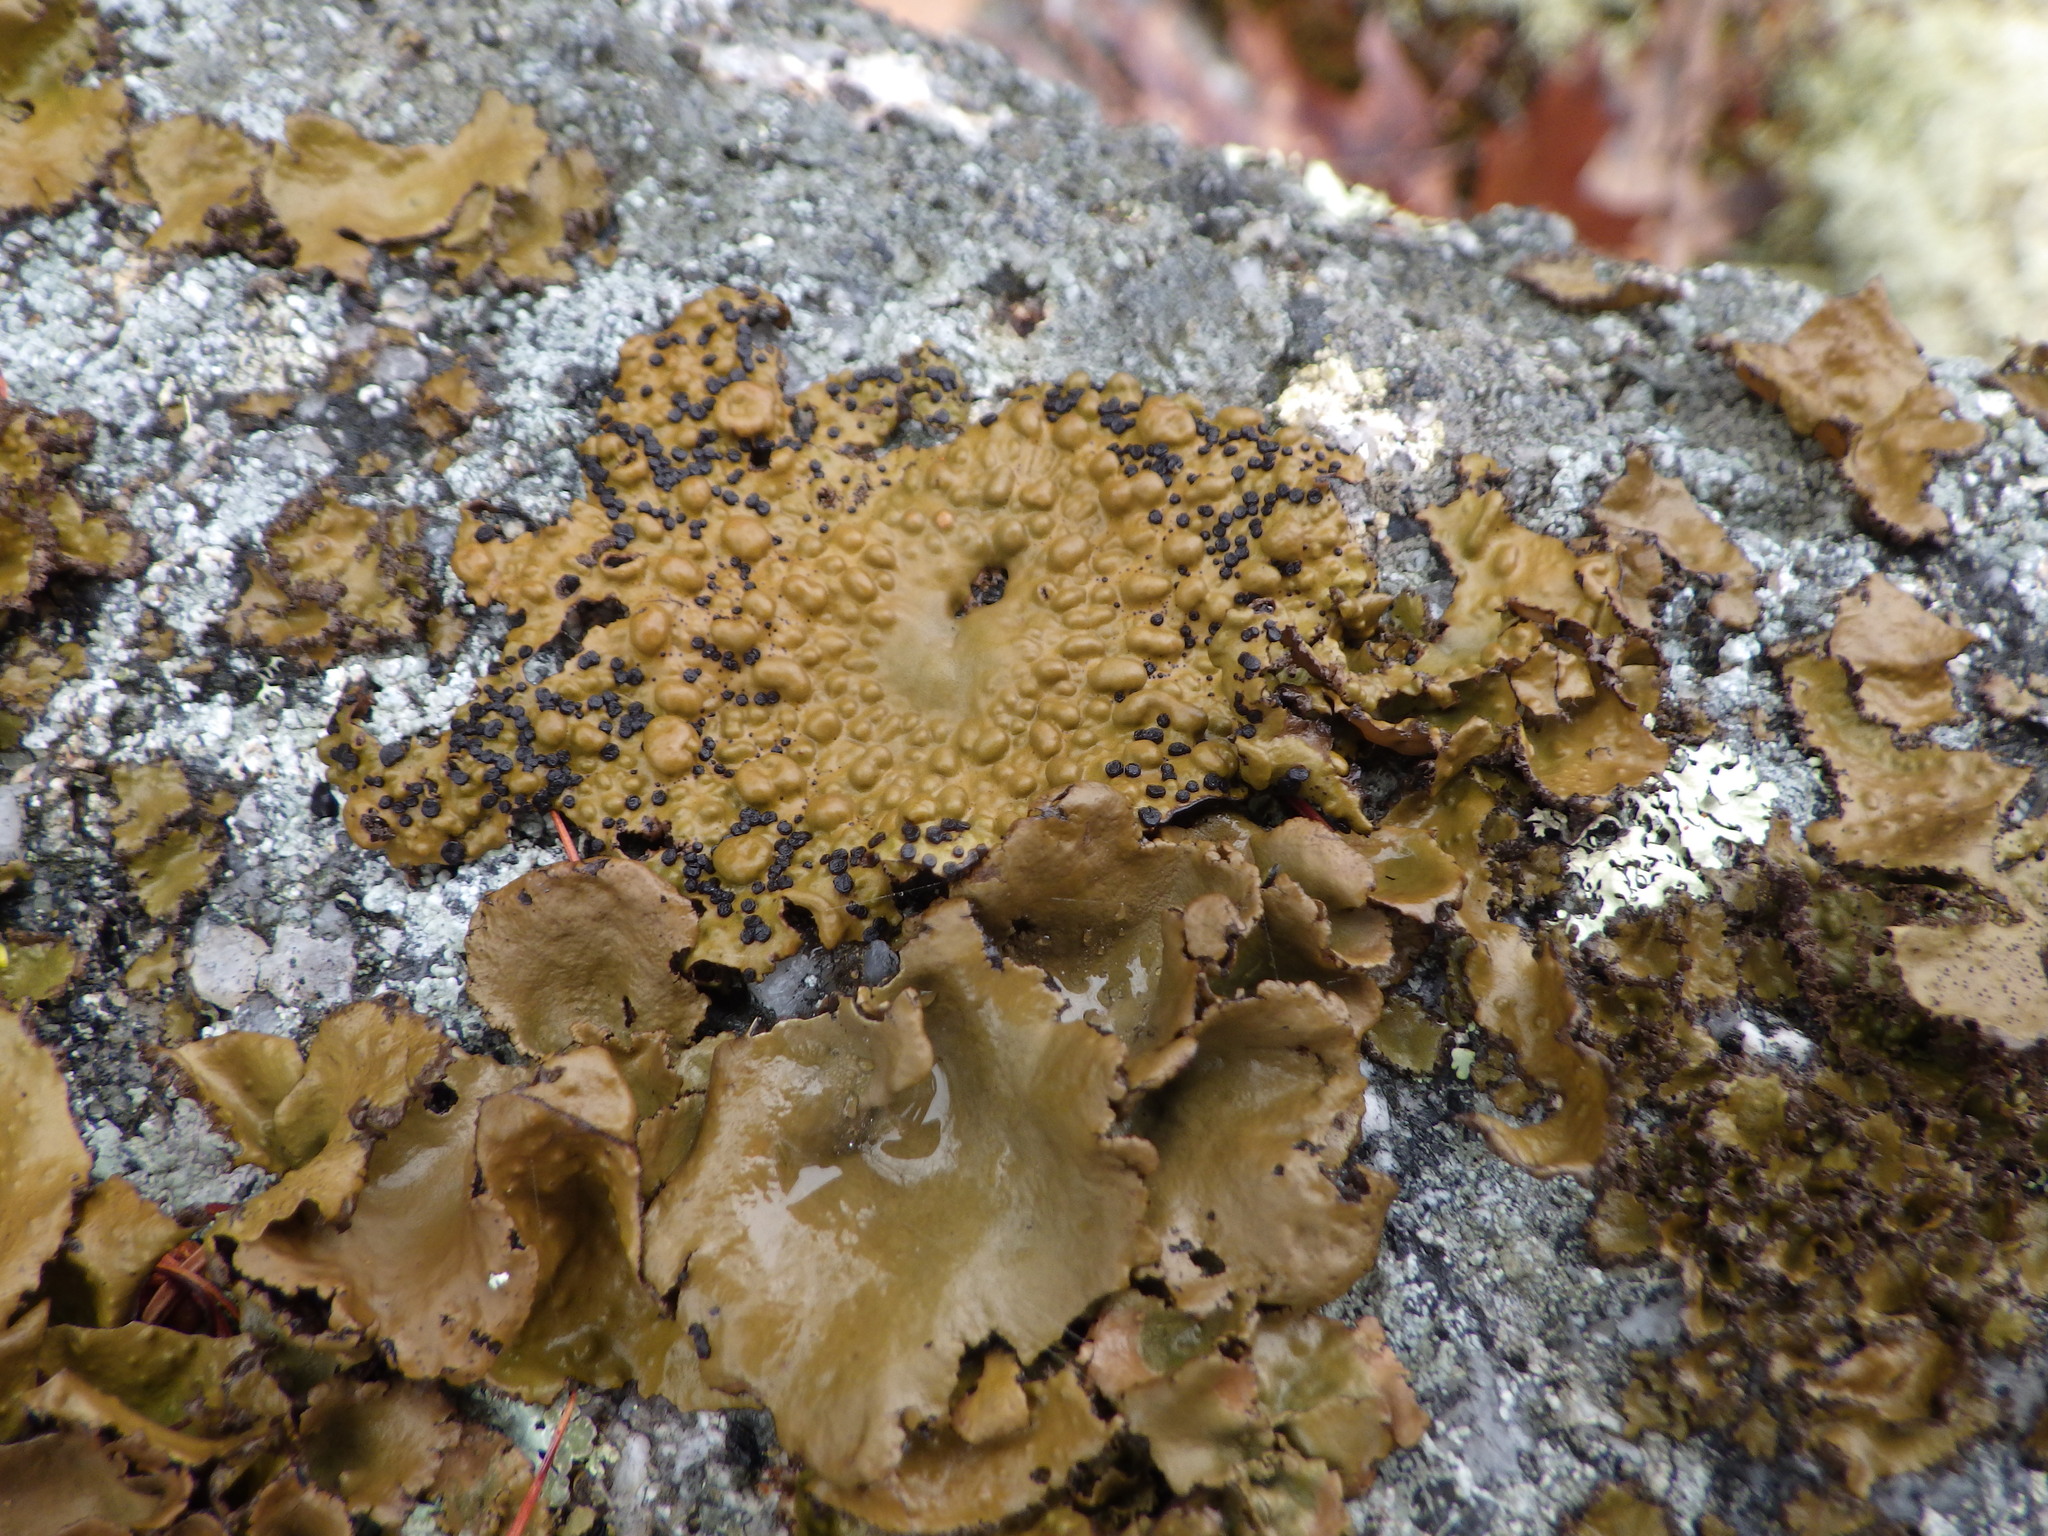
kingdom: Fungi
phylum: Ascomycota
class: Lecanoromycetes
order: Umbilicariales
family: Umbilicariaceae
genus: Umbilicaria
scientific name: Umbilicaria mammulata
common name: Smooth rock tripe
